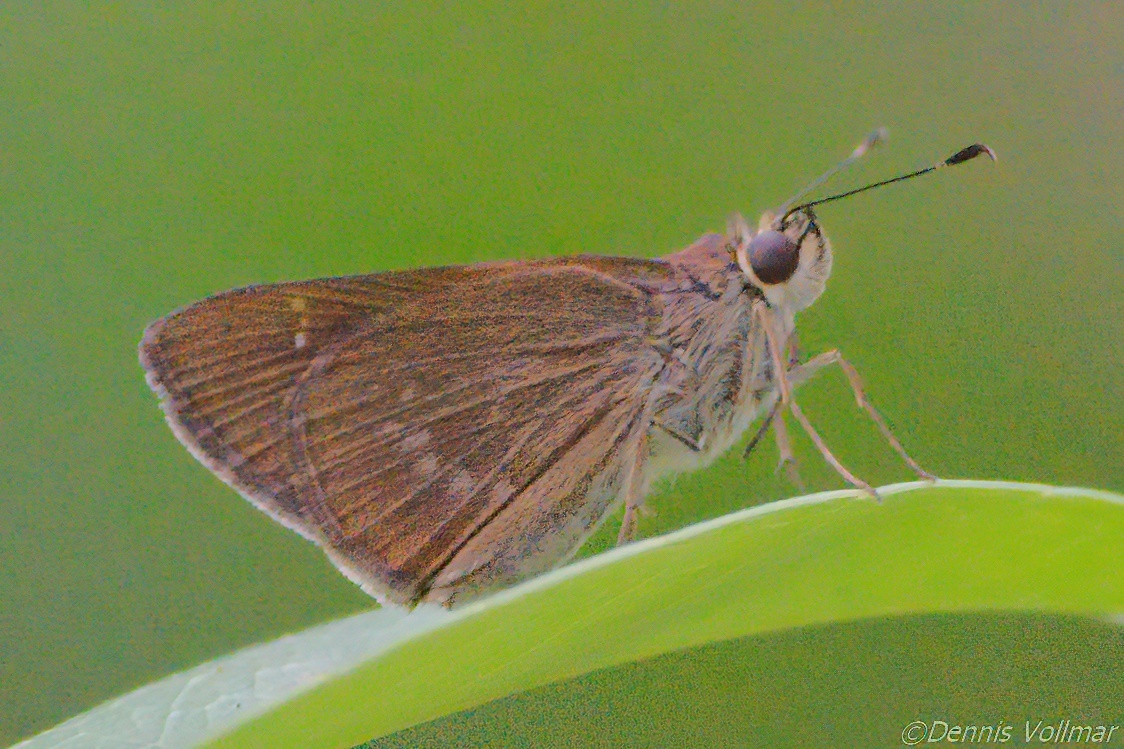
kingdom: Animalia
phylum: Arthropoda
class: Insecta
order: Lepidoptera
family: Hesperiidae
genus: Cymaenes
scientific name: Cymaenes tripunctus
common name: Dingy dotted skipper
